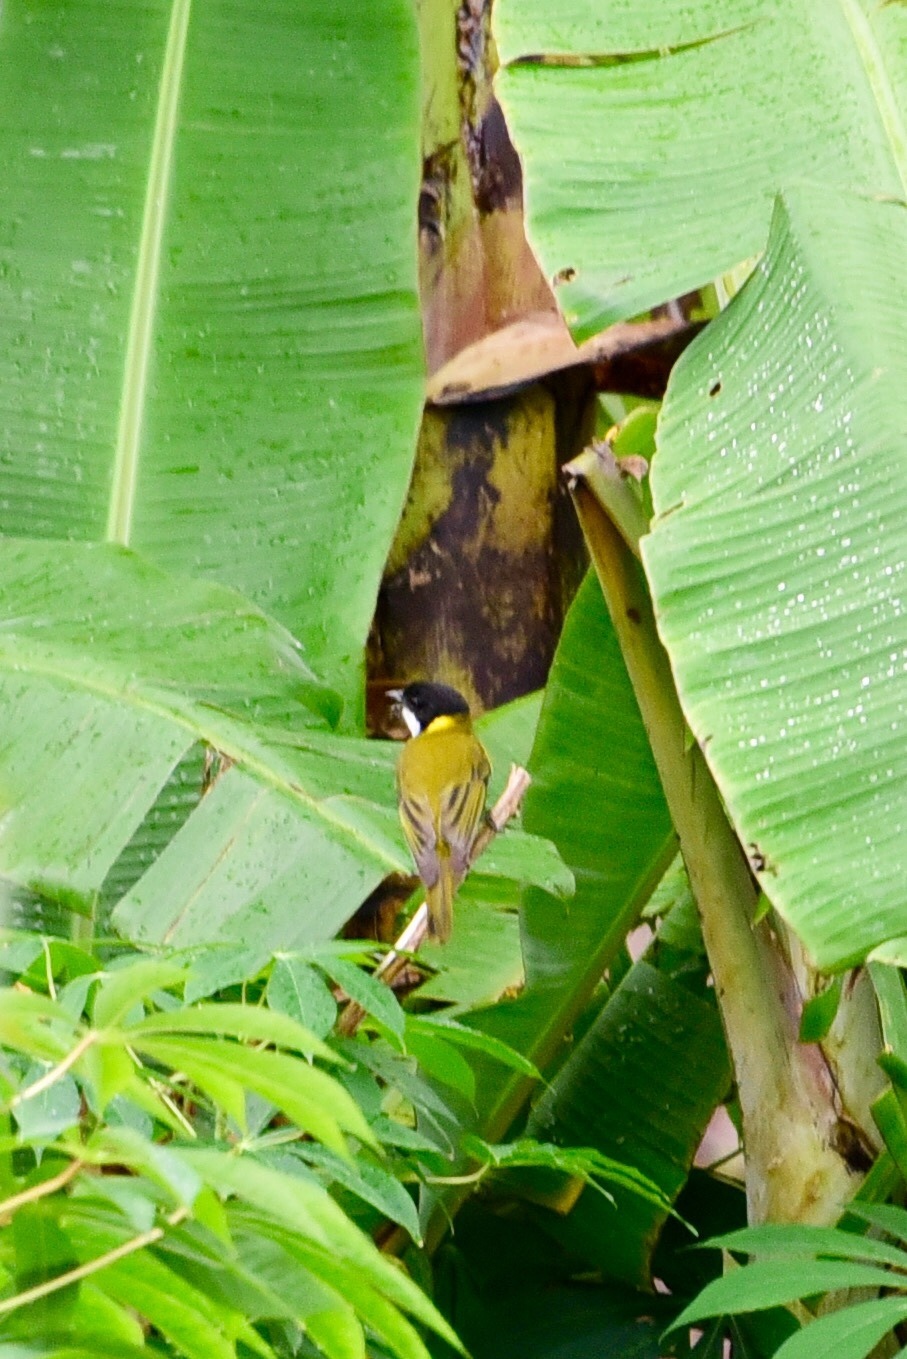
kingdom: Animalia
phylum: Chordata
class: Aves
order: Passeriformes
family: Pachycephalidae
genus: Pachycephala
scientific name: Pachycephala chlorura
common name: Melanesian whistler
